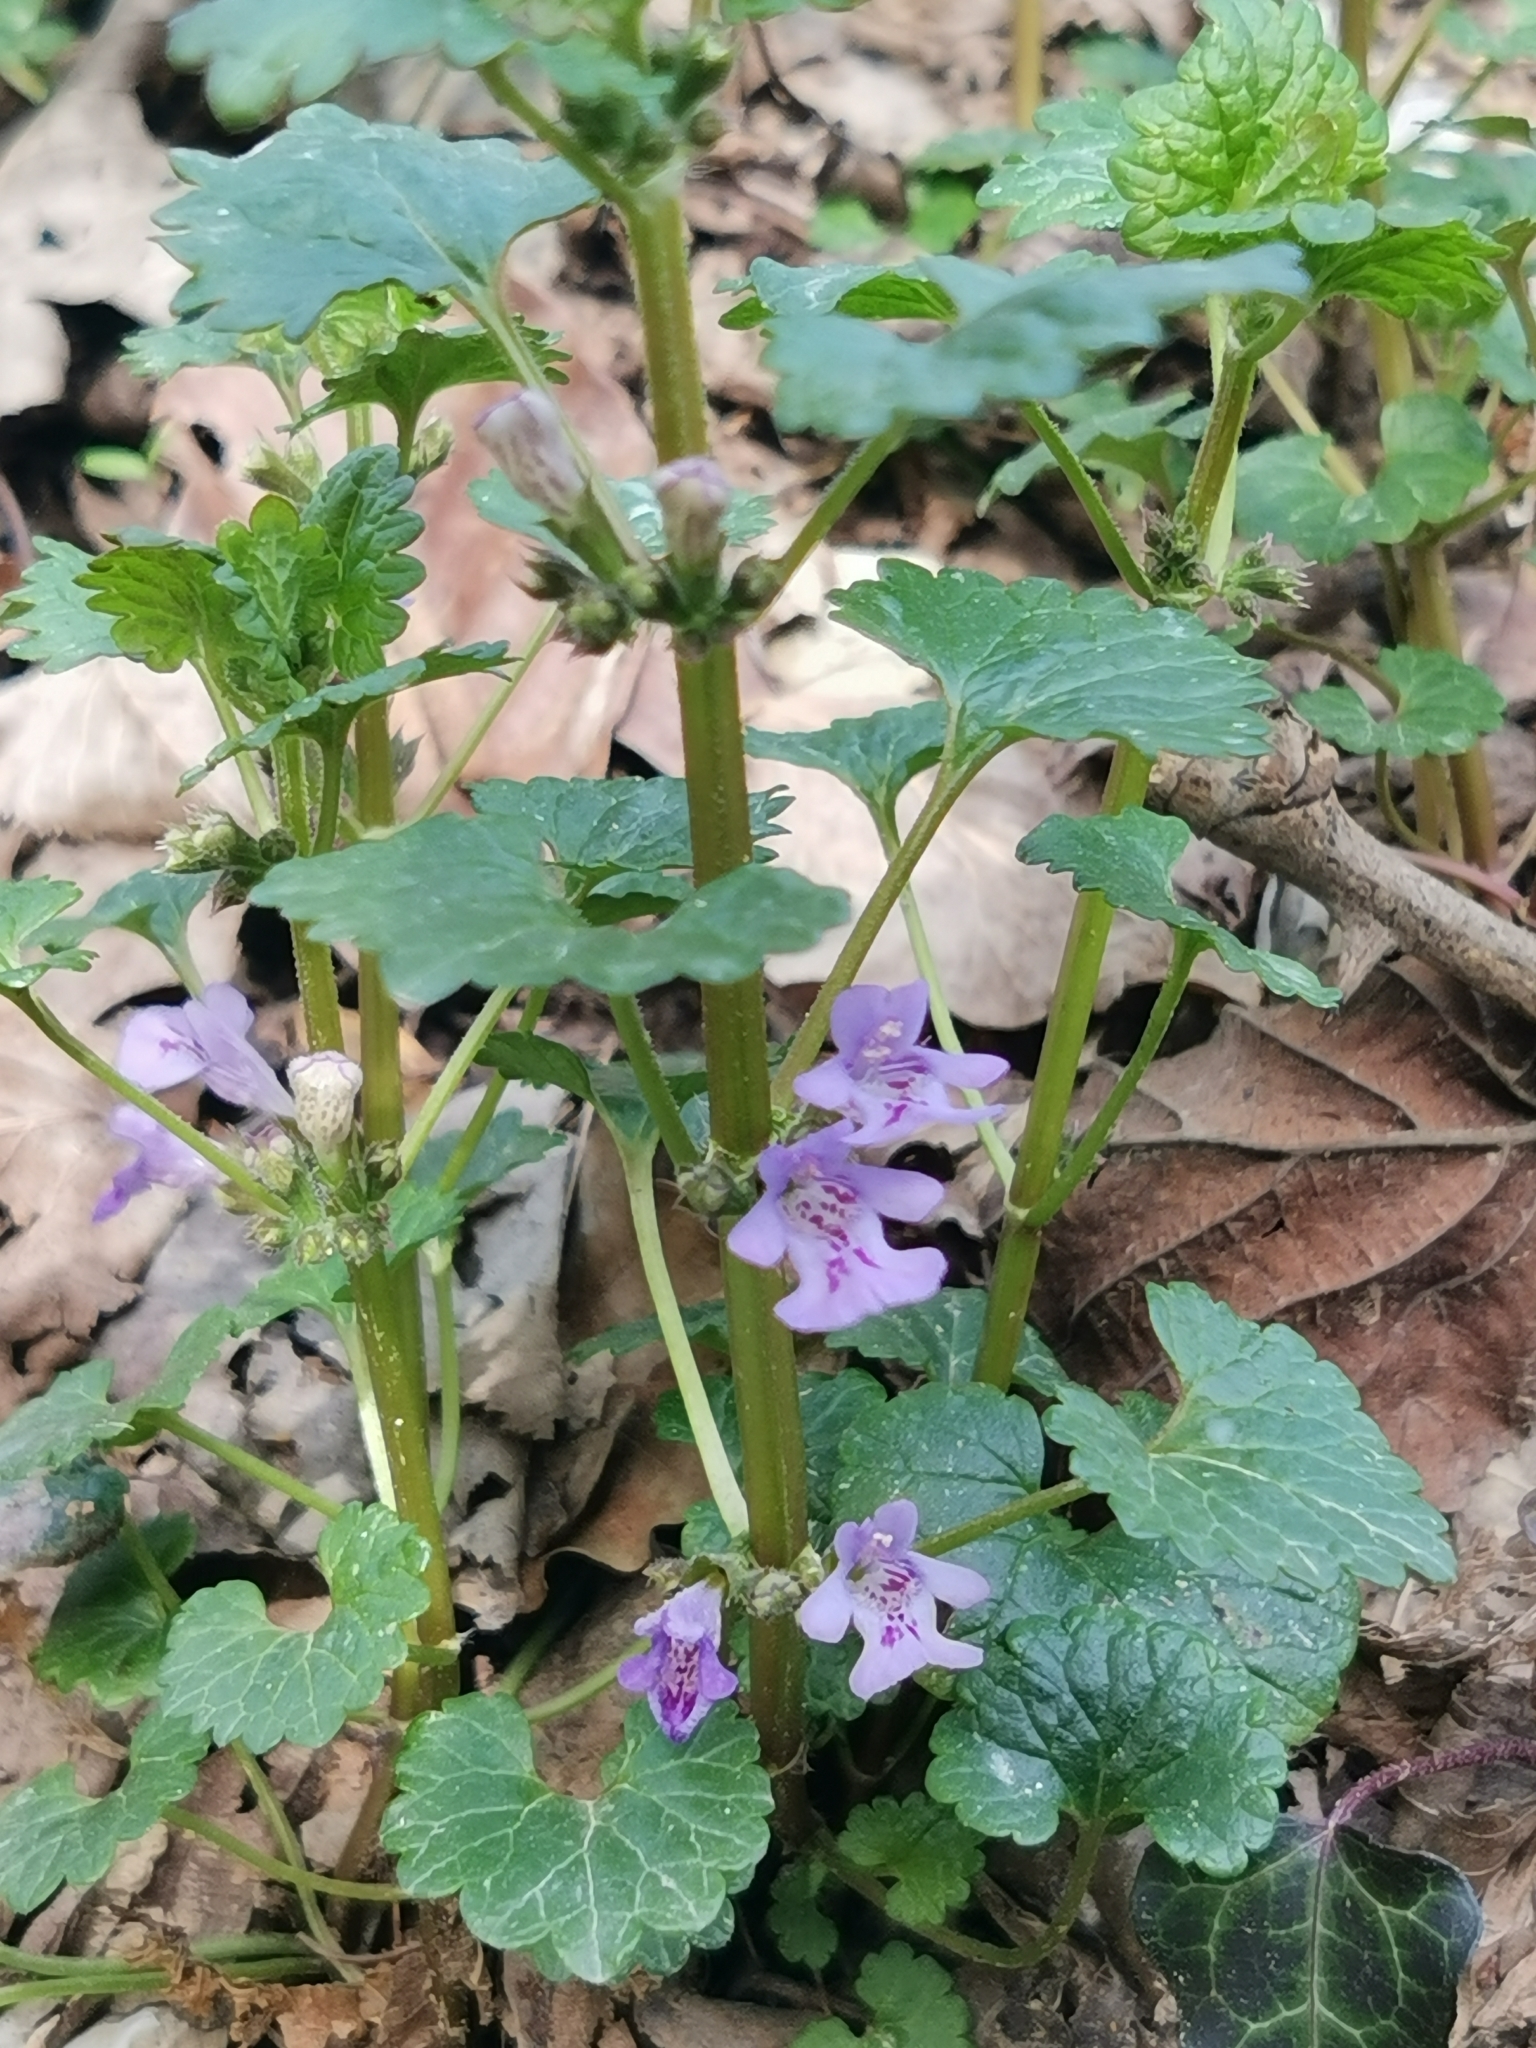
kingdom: Plantae
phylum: Tracheophyta
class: Magnoliopsida
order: Lamiales
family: Lamiaceae
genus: Glechoma
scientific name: Glechoma hederacea
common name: Ground ivy
